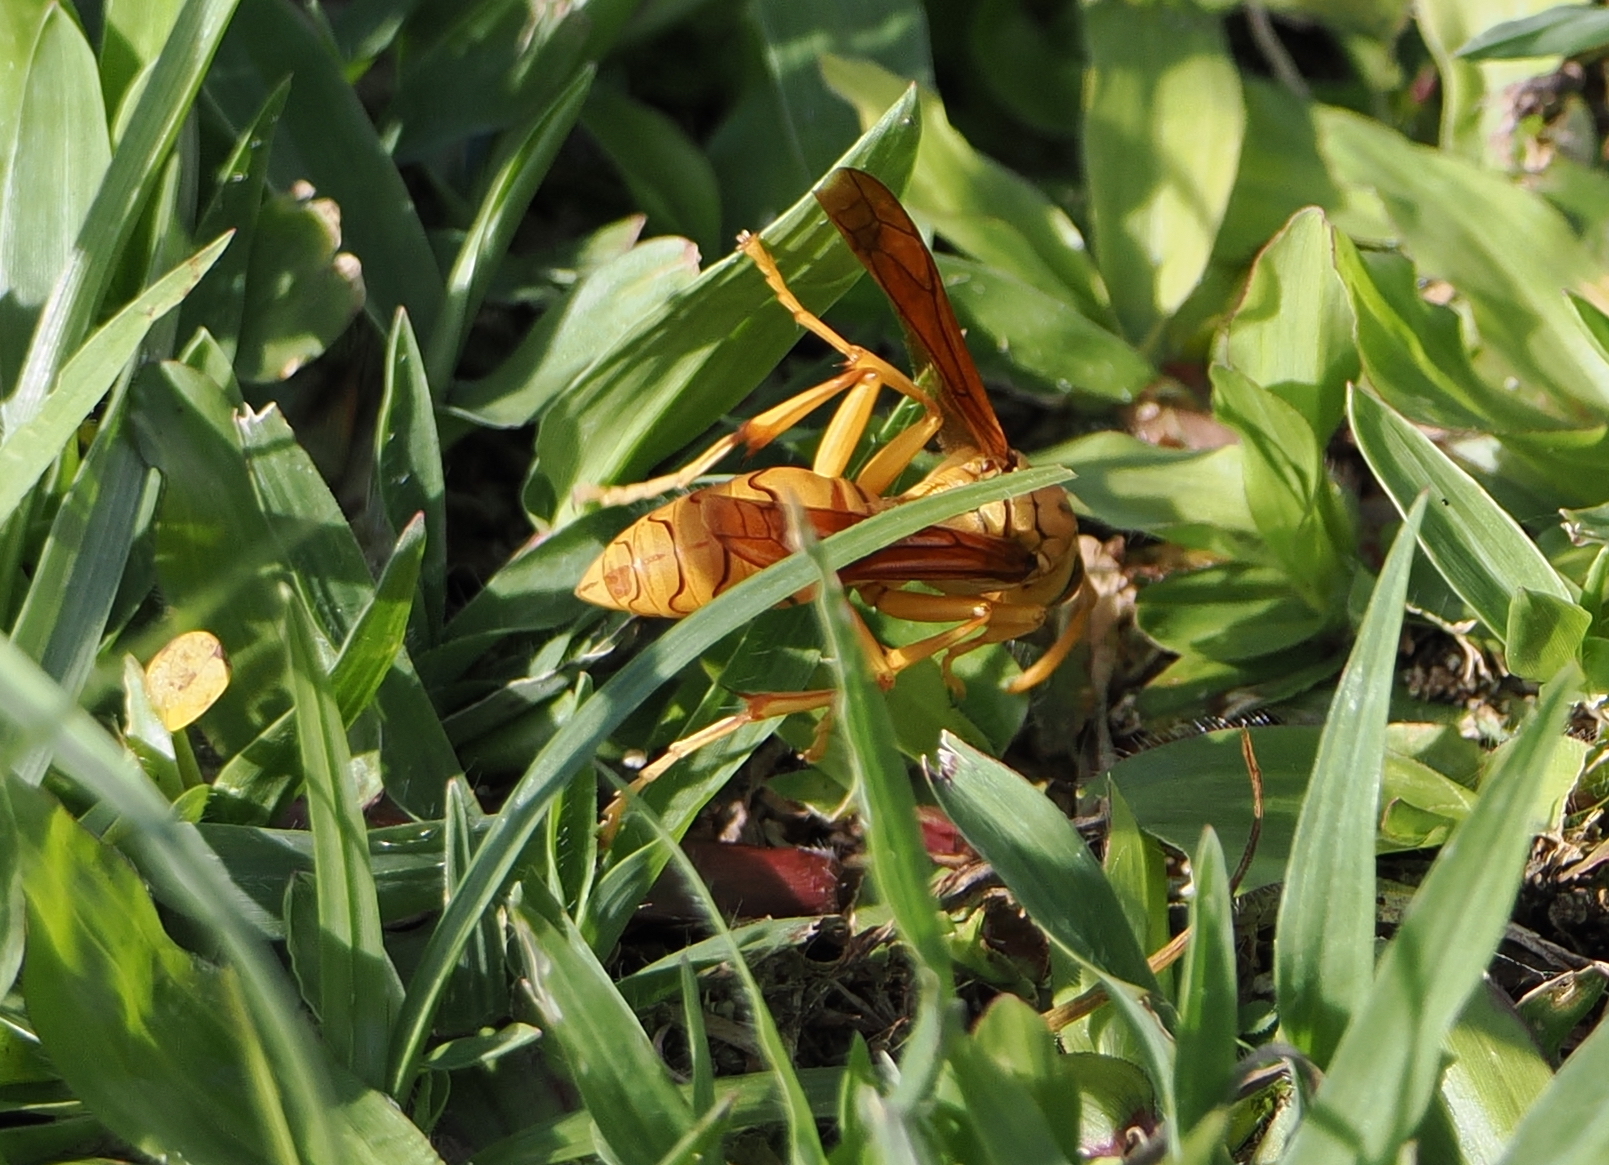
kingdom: Animalia
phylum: Arthropoda
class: Insecta
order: Hymenoptera
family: Eumenidae
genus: Polistes
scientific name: Polistes olivaceus
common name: Paper wasp
